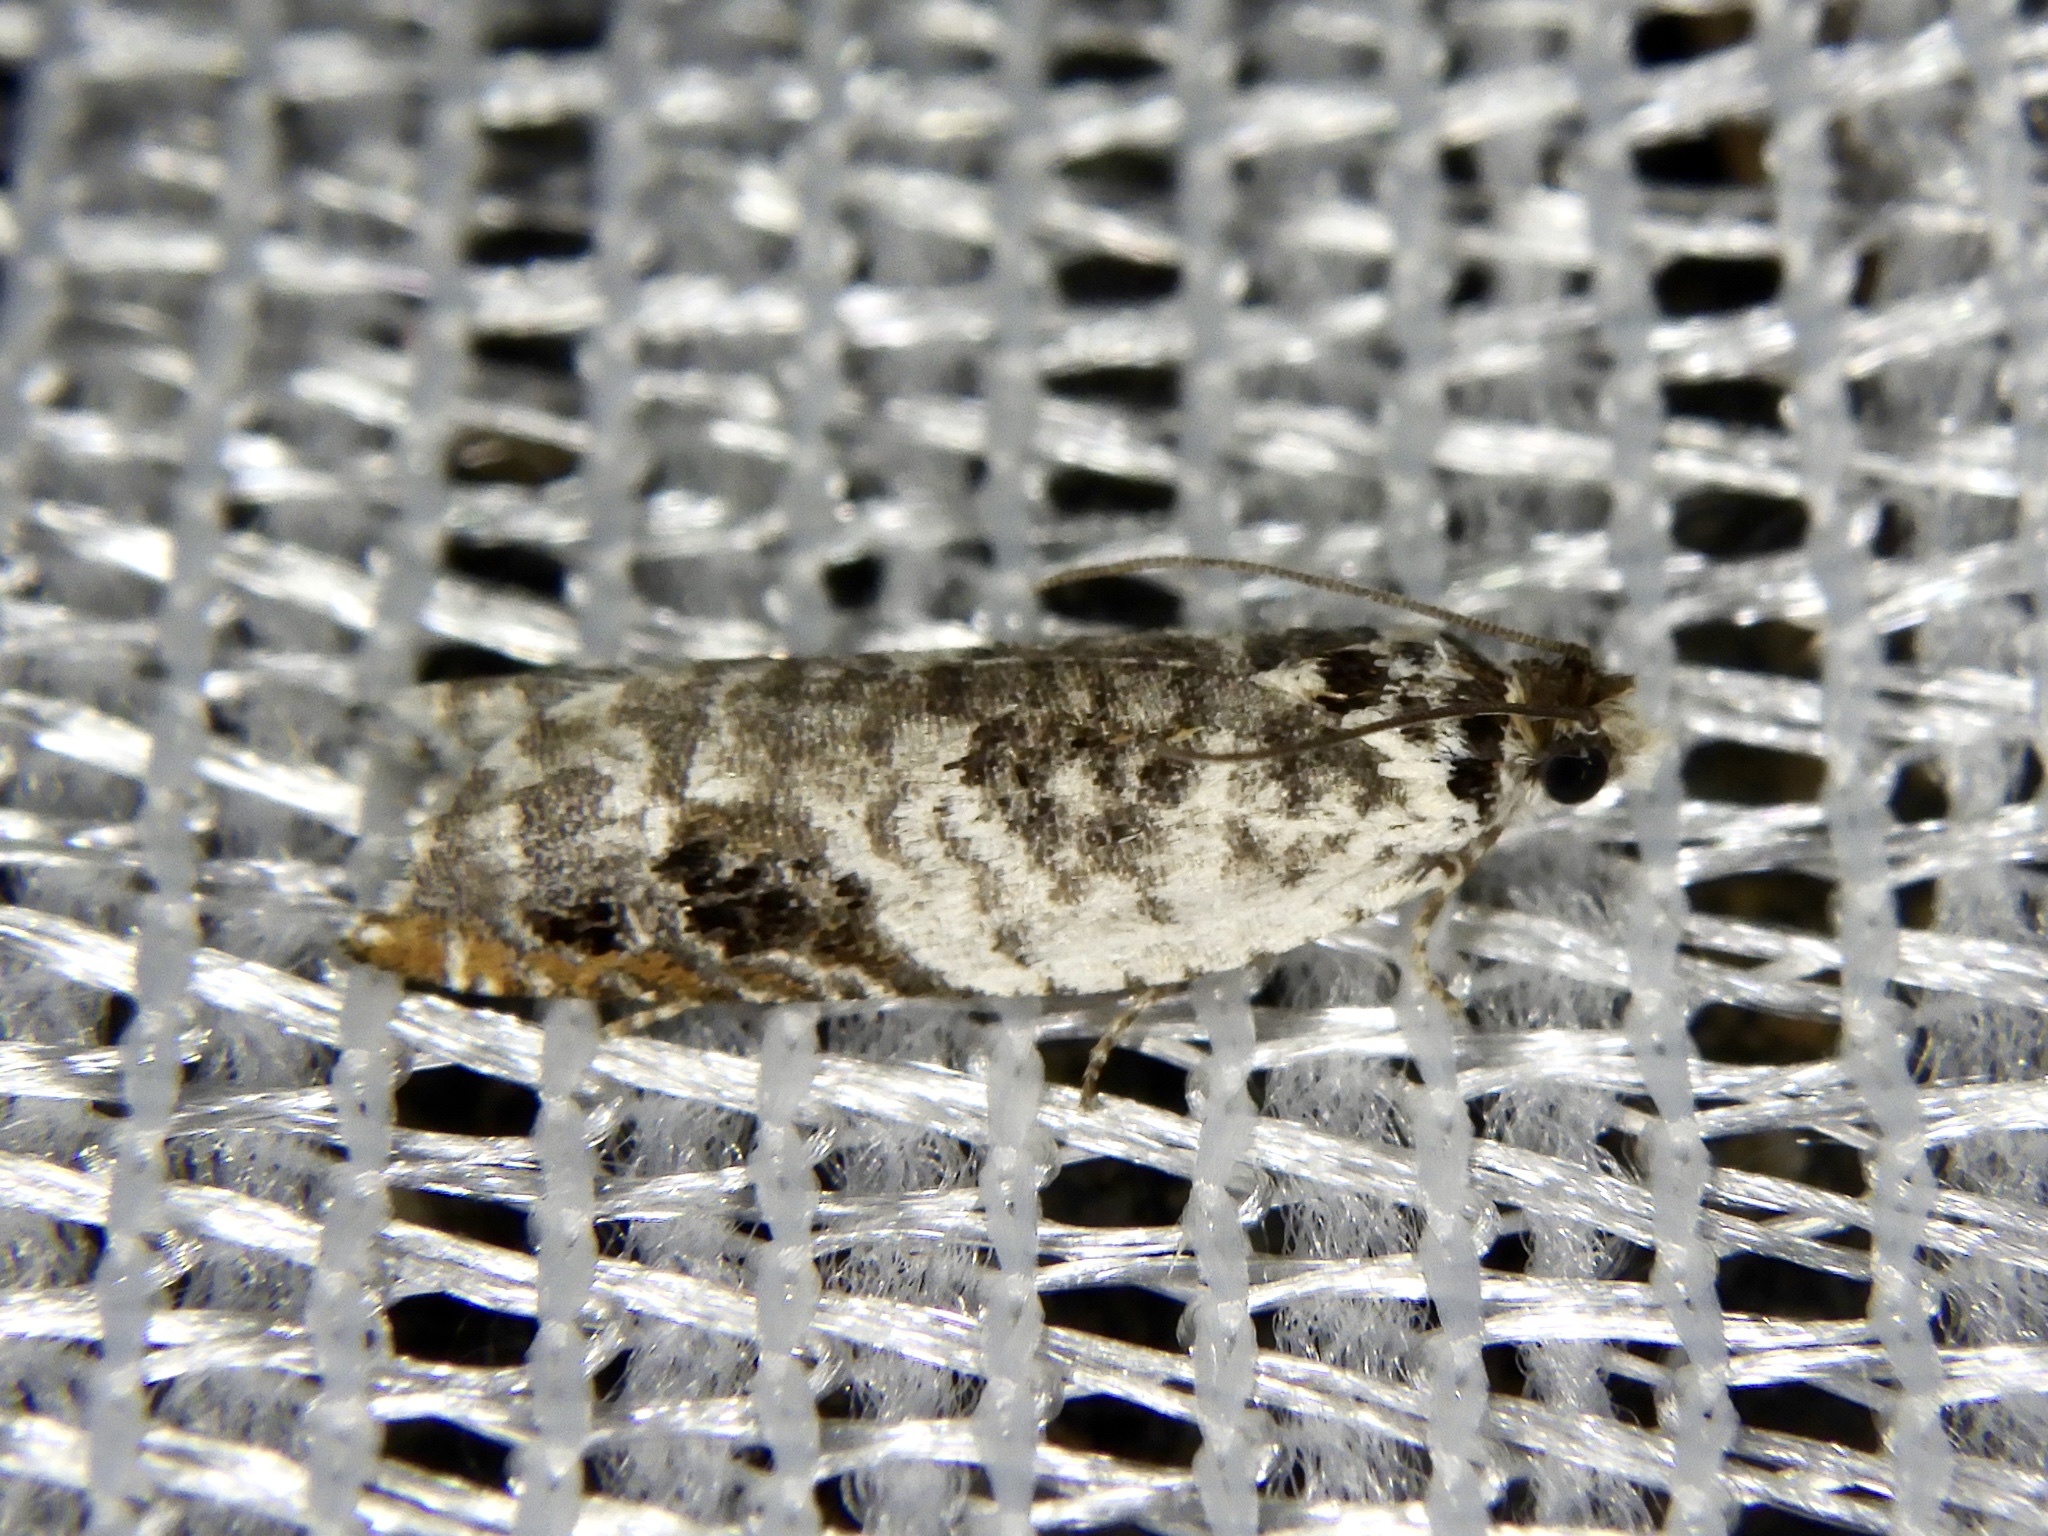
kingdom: Animalia
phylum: Arthropoda
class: Insecta
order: Lepidoptera
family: Tortricidae
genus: Ancylis
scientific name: Ancylis amplimacula
